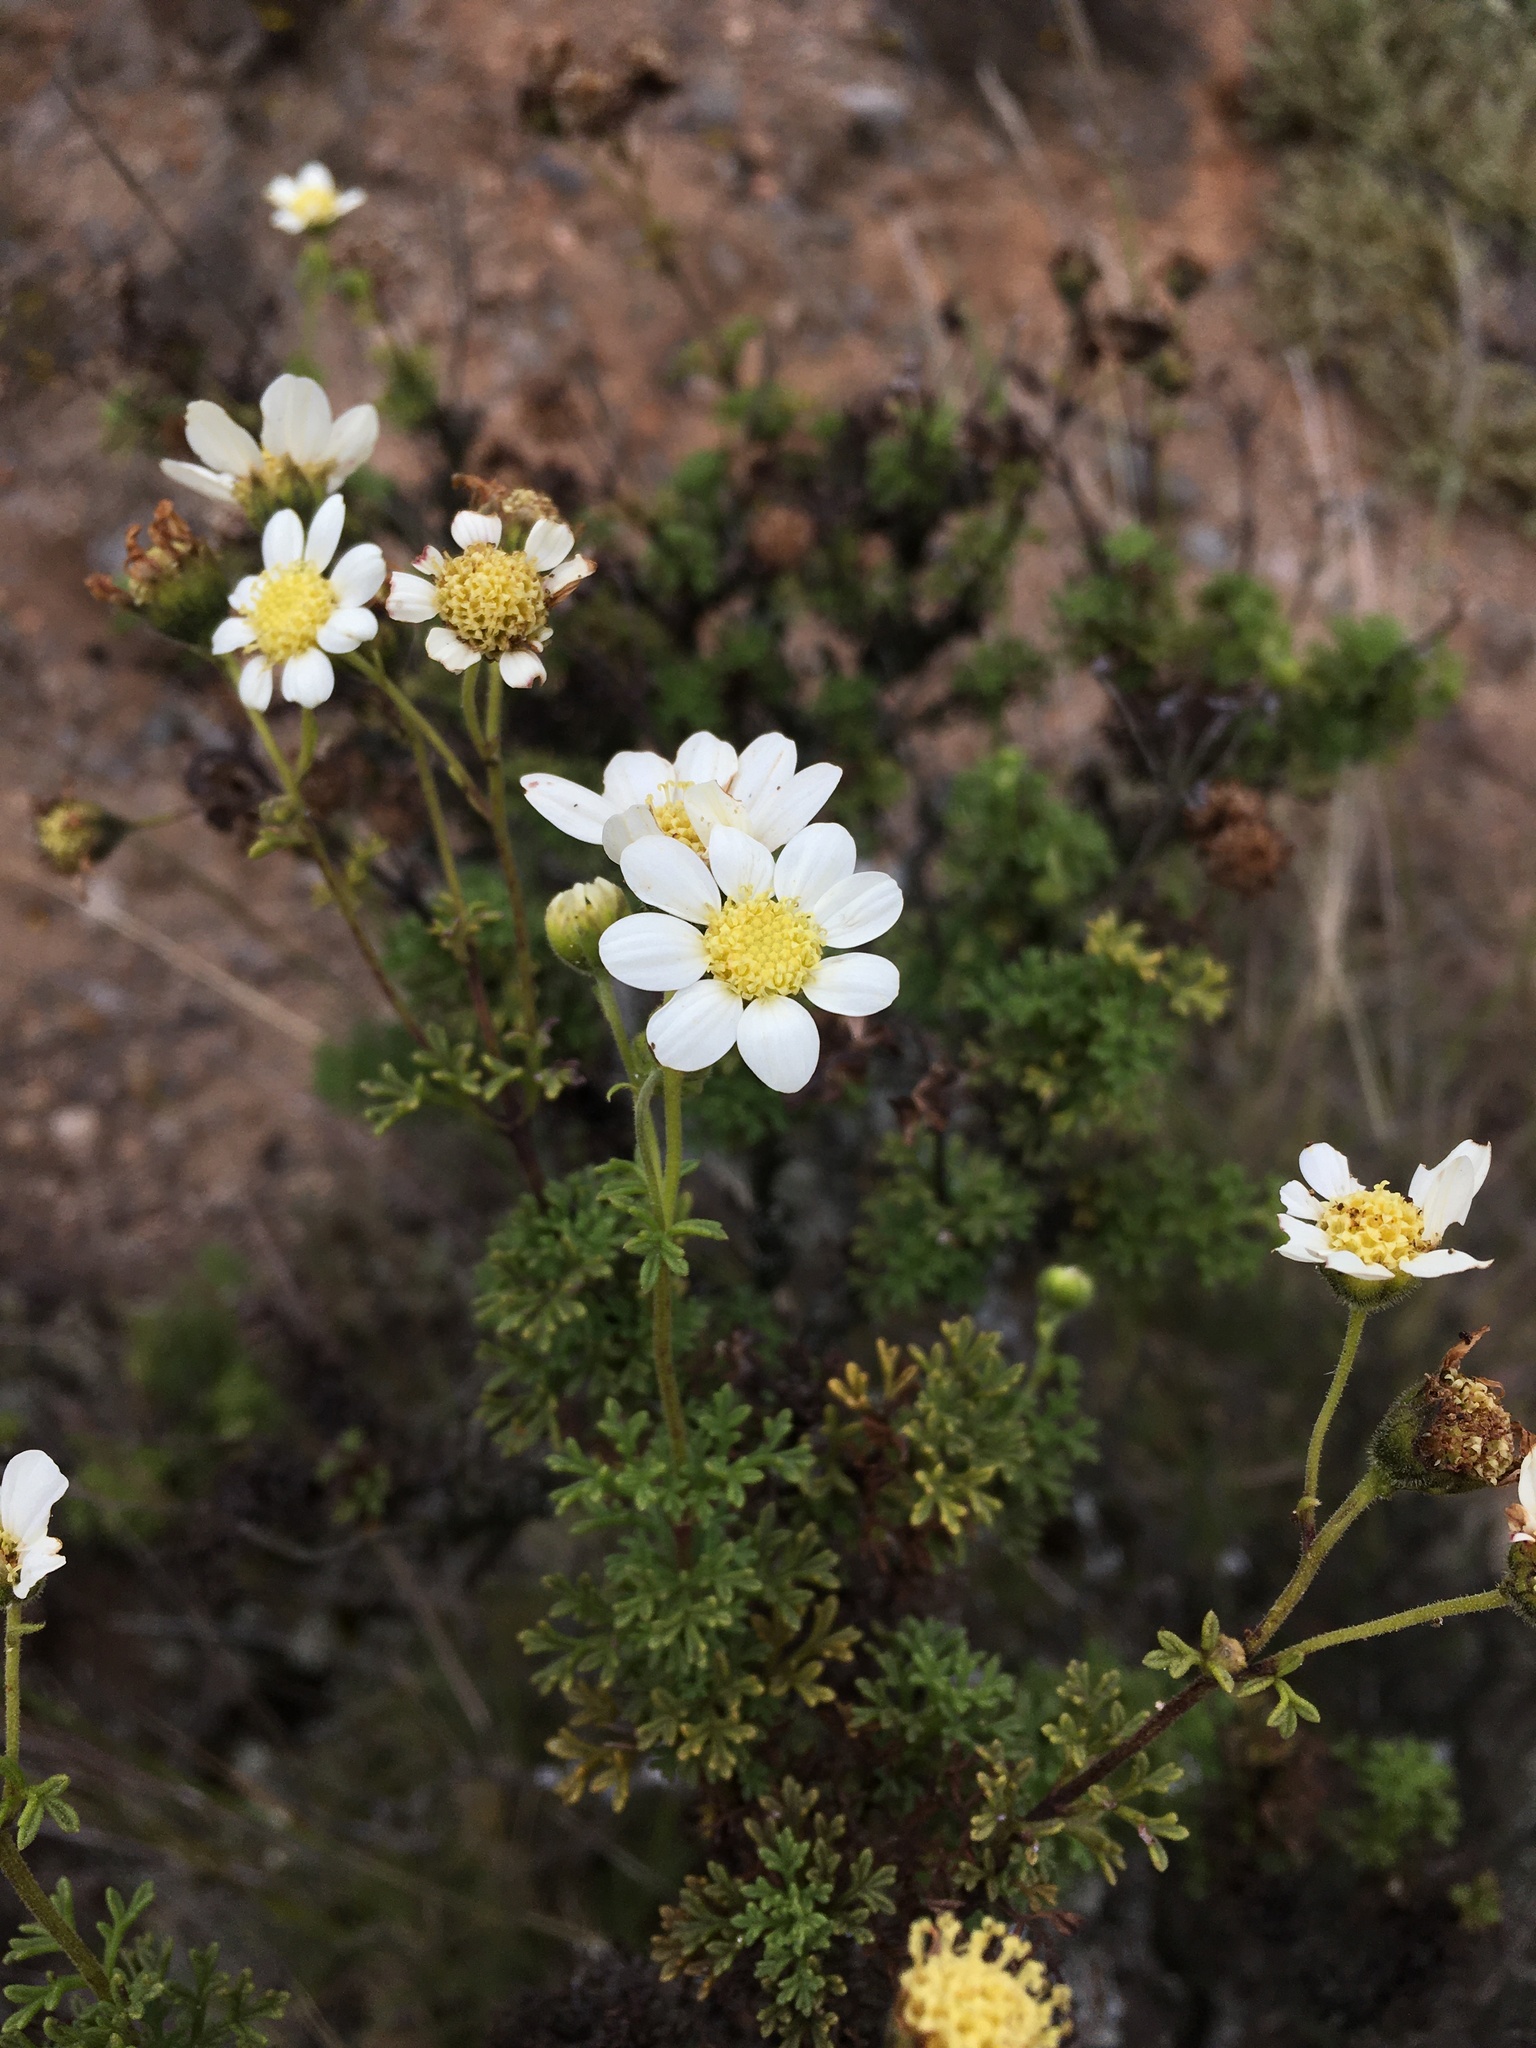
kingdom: Plantae
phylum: Tracheophyta
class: Magnoliopsida
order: Asterales
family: Asteraceae
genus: Bahia
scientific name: Bahia ambrosioides
